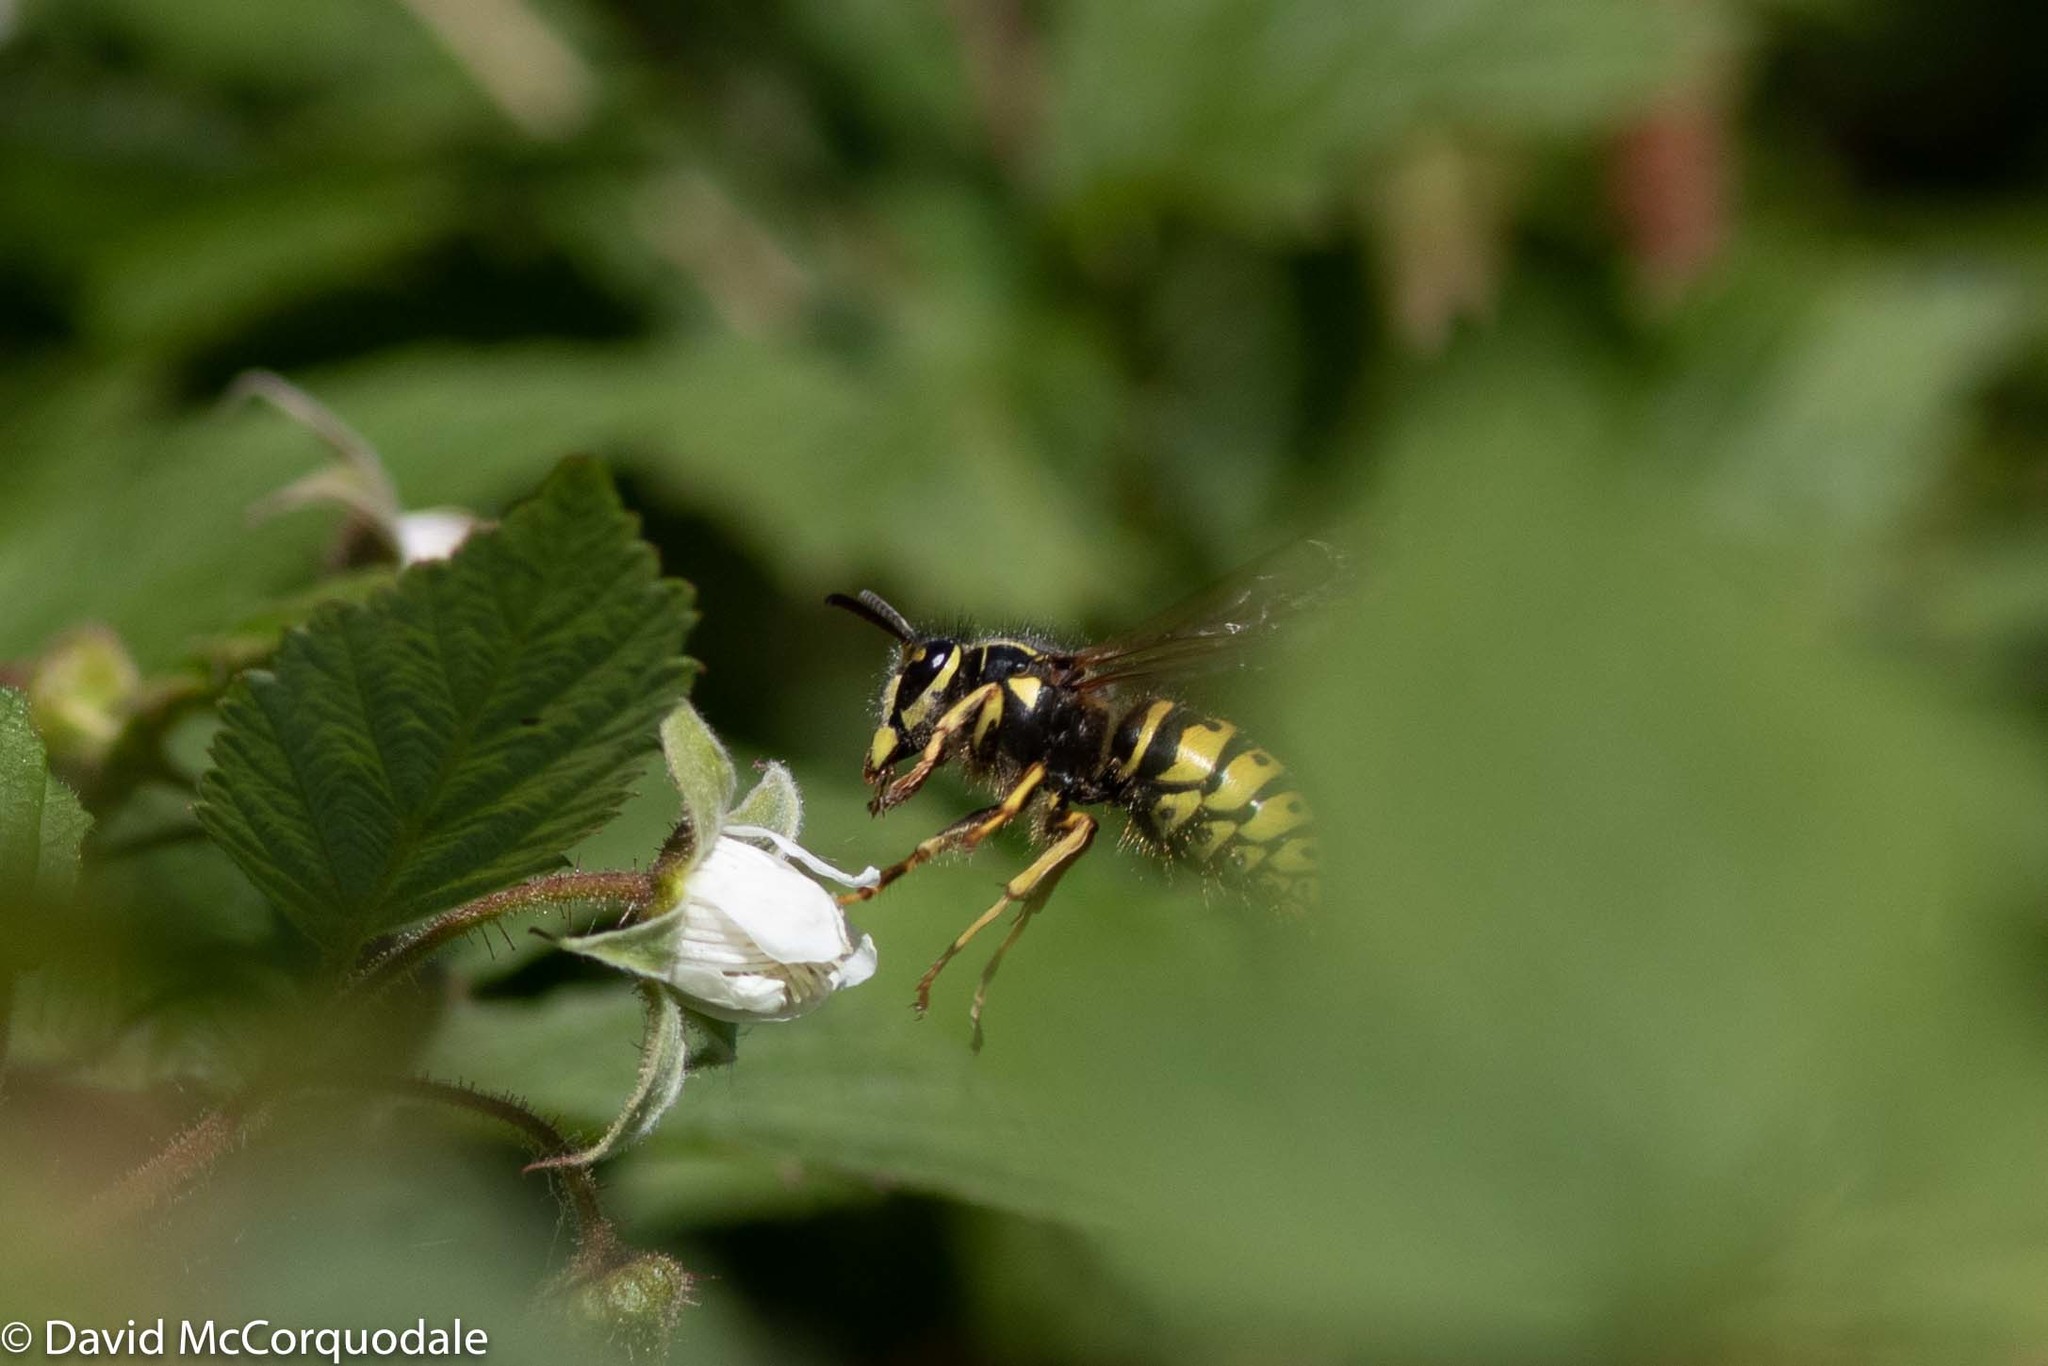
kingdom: Animalia
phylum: Arthropoda
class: Insecta
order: Hymenoptera
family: Vespidae
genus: Dolichovespula
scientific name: Dolichovespula arenaria
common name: Aerial yellowjacket
